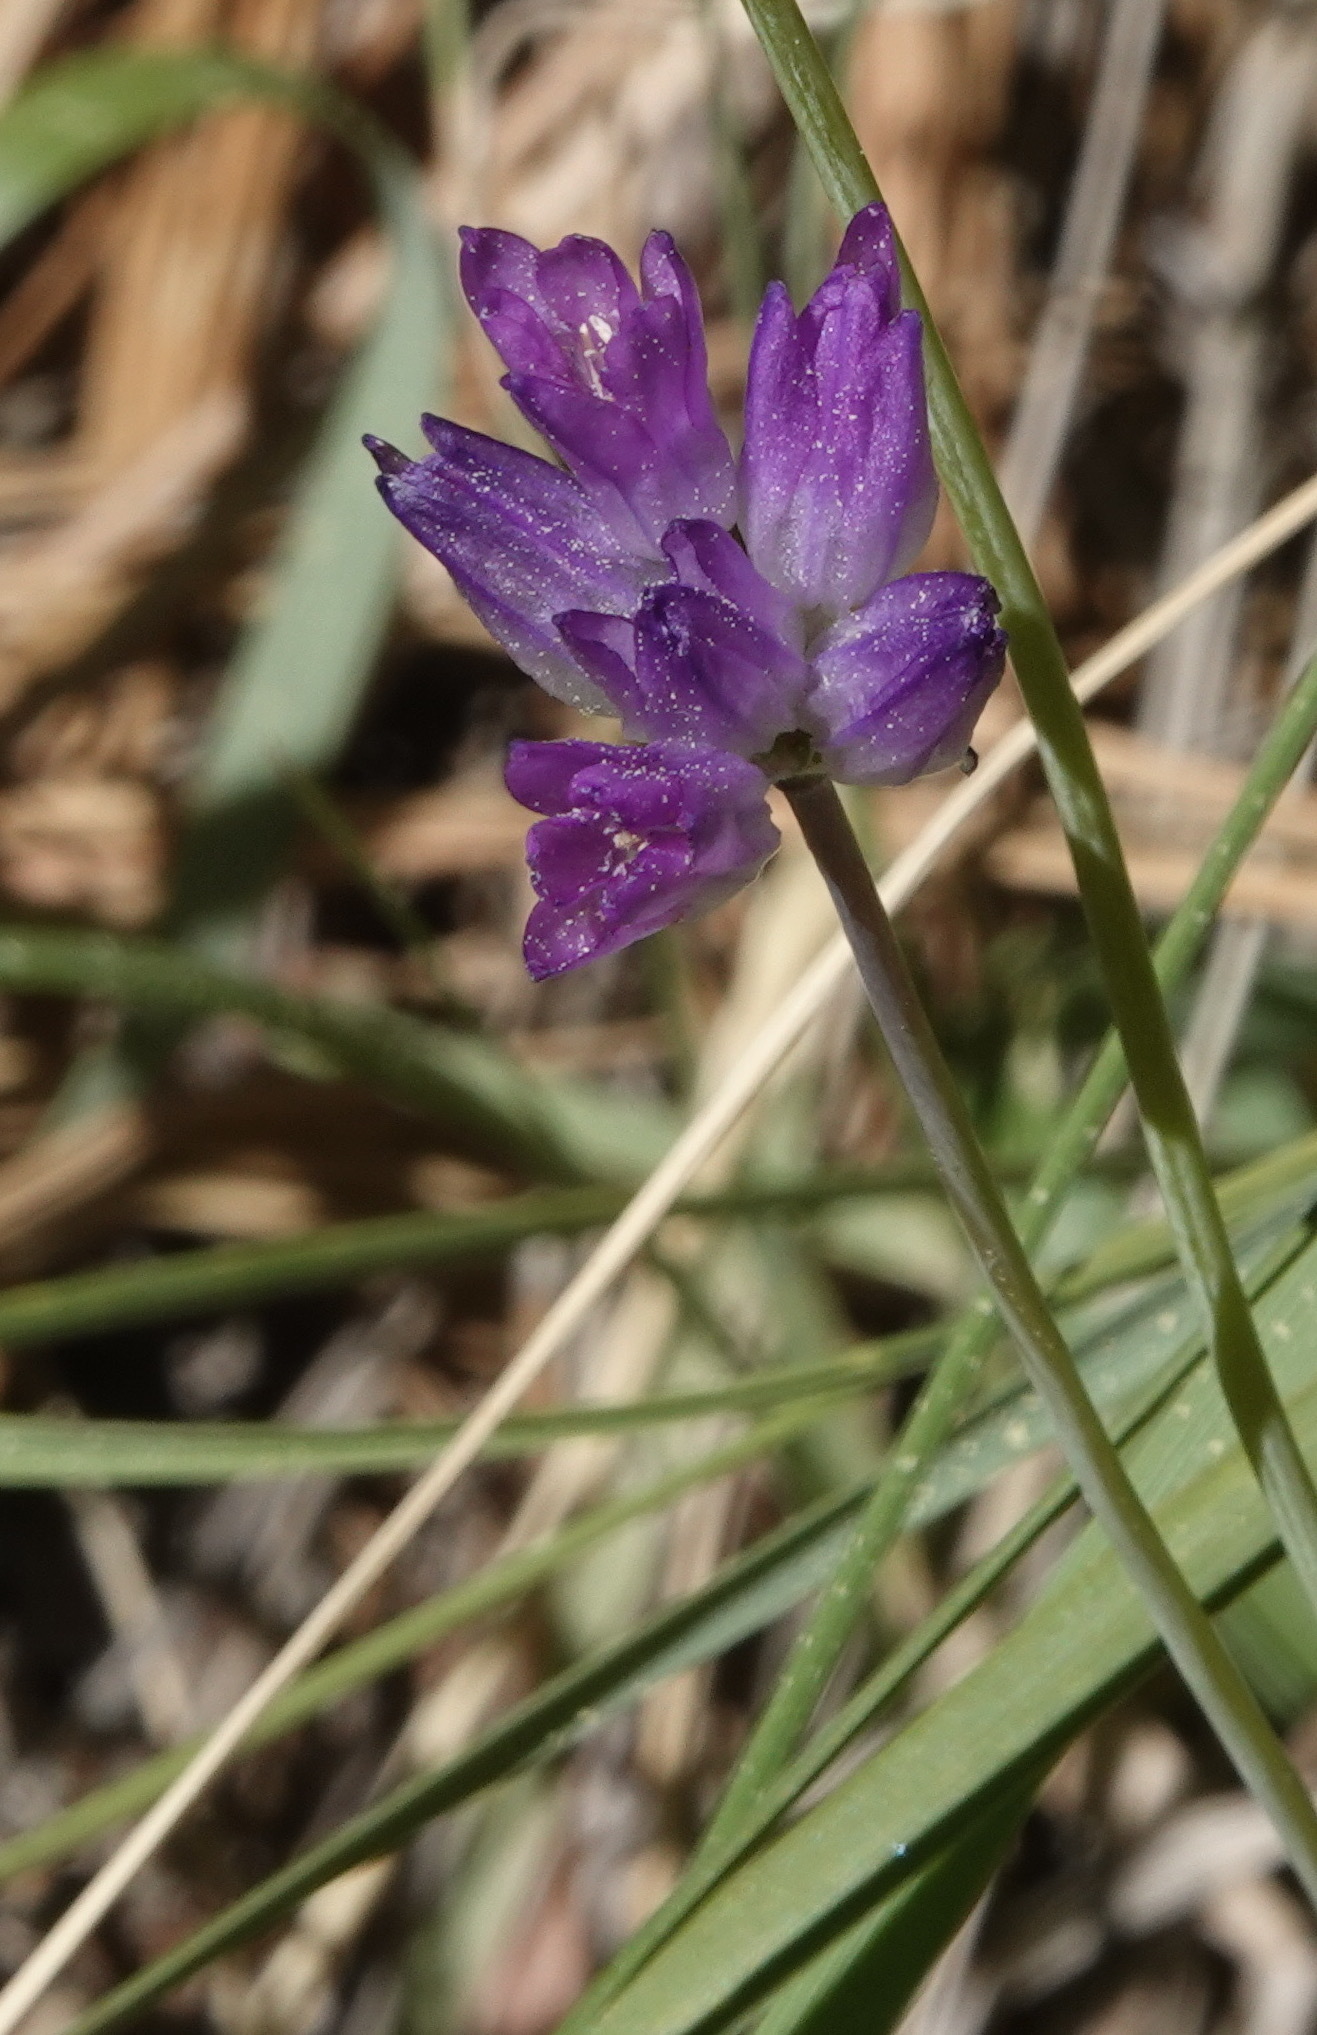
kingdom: Plantae
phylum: Tracheophyta
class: Liliopsida
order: Asparagales
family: Asparagaceae
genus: Dipterostemon
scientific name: Dipterostemon capitatus
